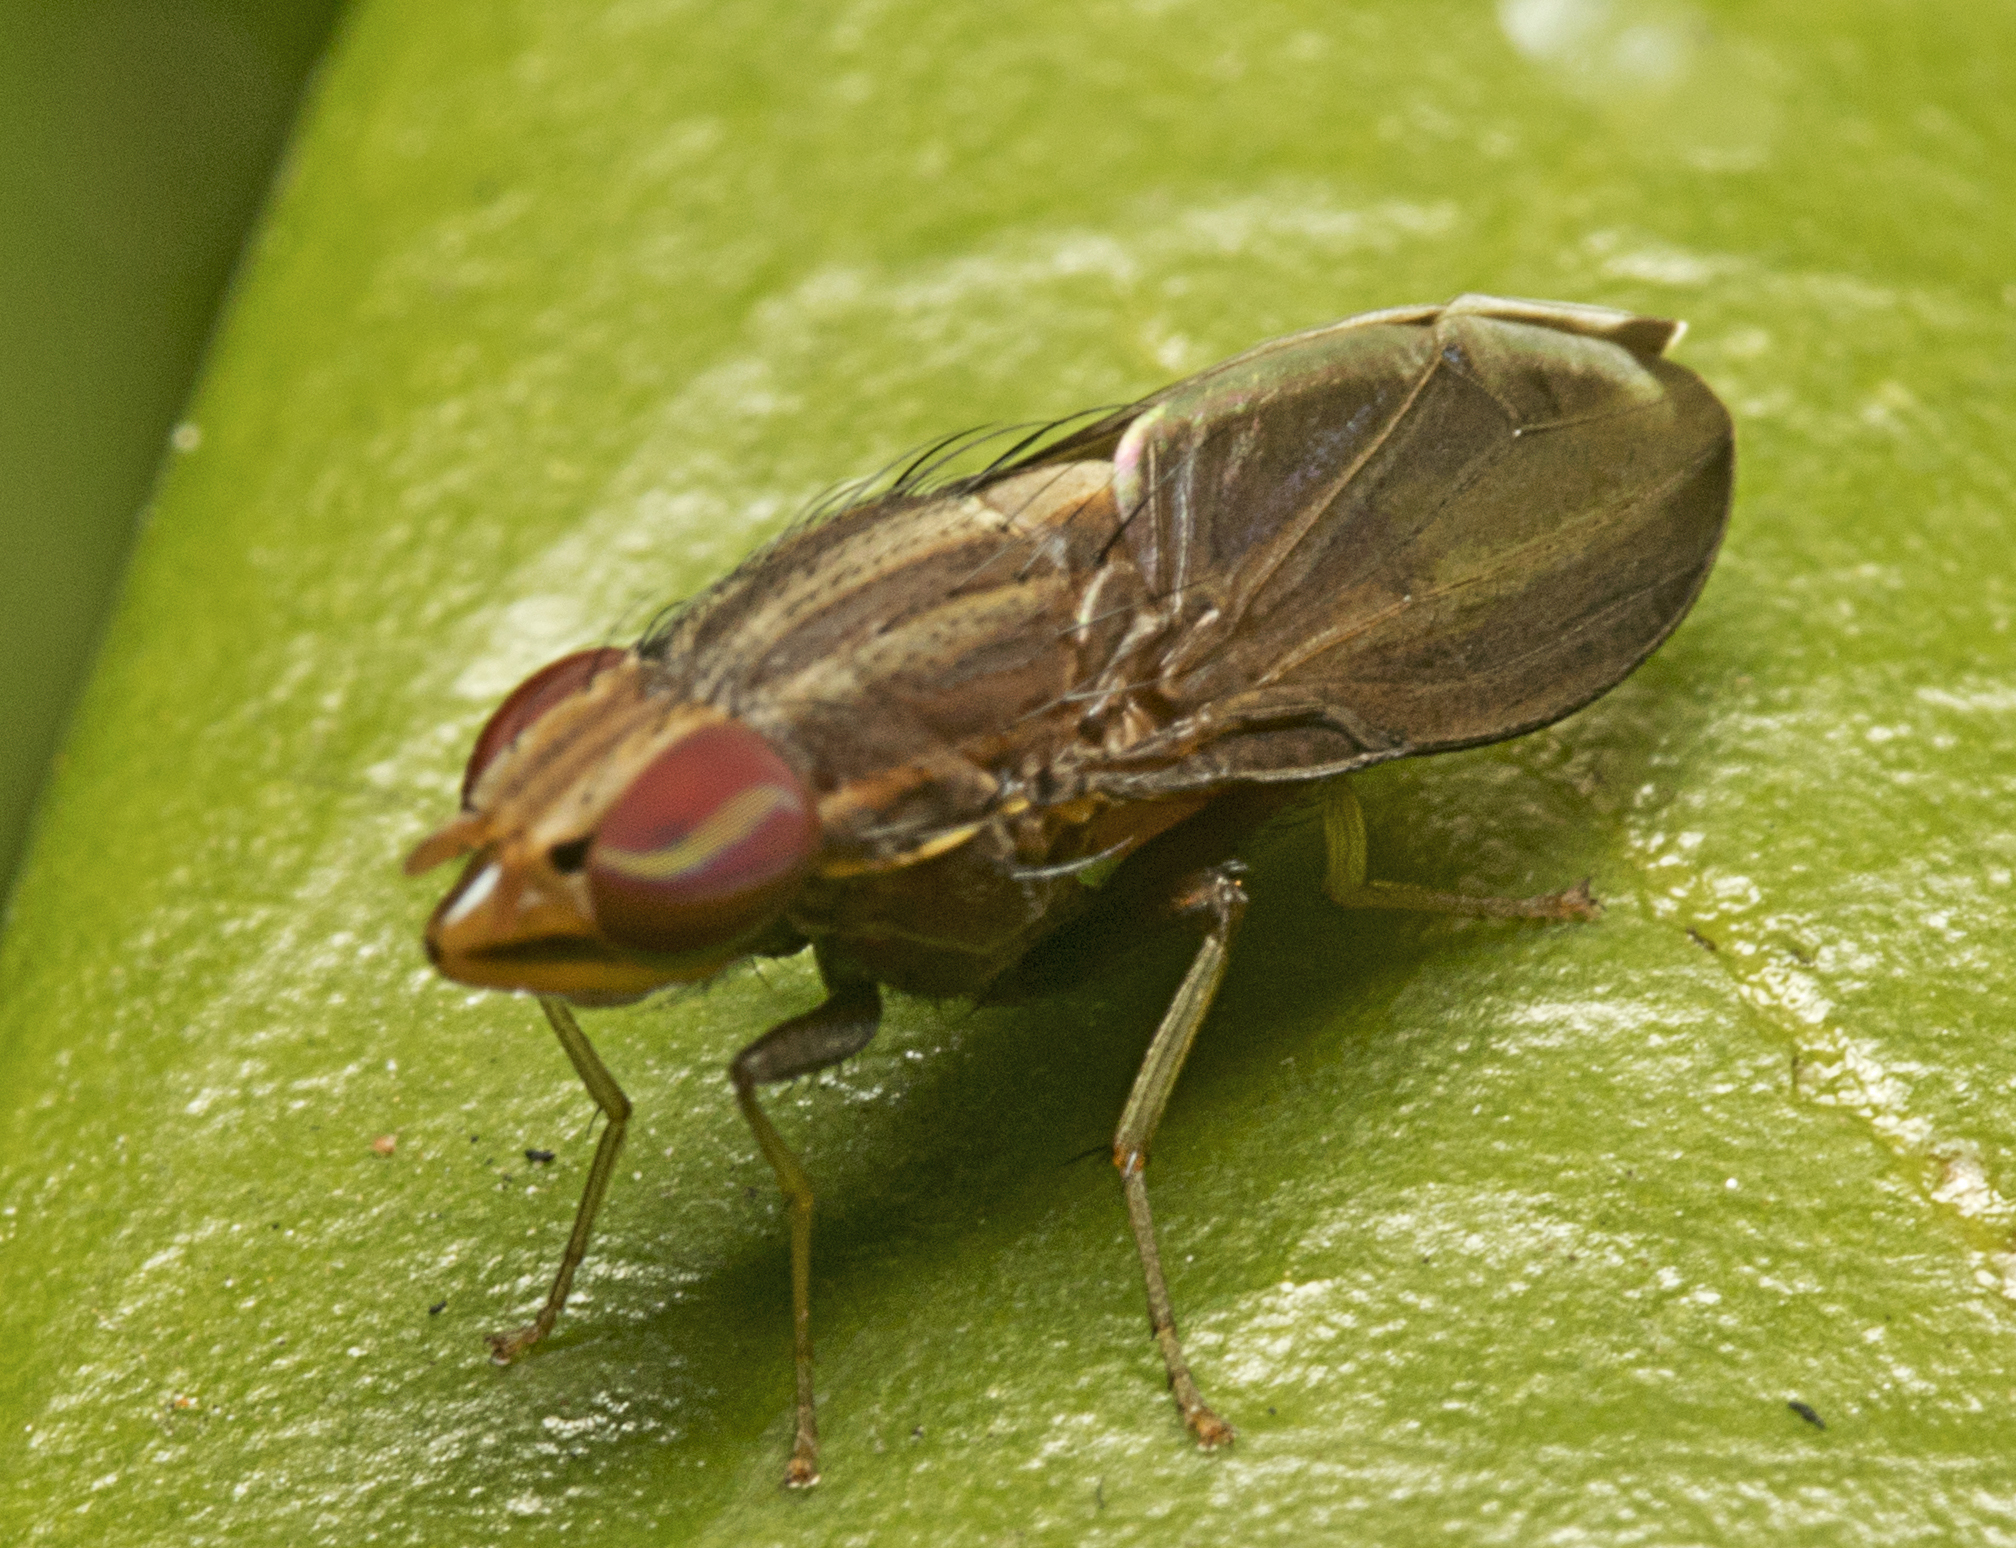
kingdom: Animalia
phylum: Arthropoda
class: Insecta
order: Diptera
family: Lauxaniidae
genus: Cephaloconus
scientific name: Cephaloconus cyprinus
